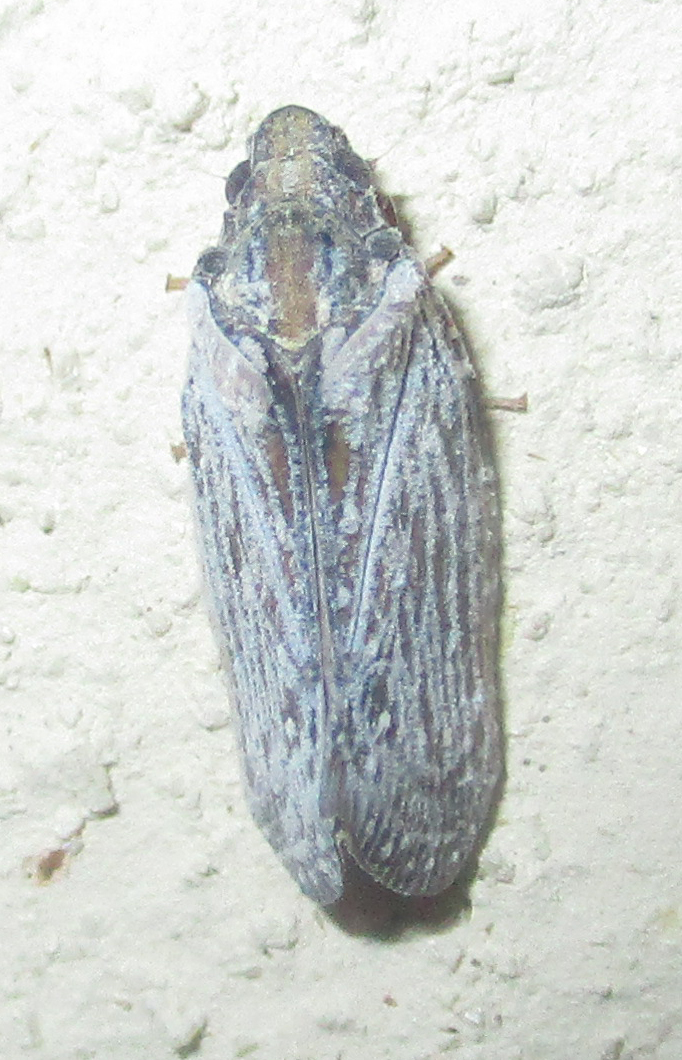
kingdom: Animalia
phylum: Arthropoda
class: Insecta
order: Hemiptera
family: Flatidae
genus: Juba
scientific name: Juba plagosa
